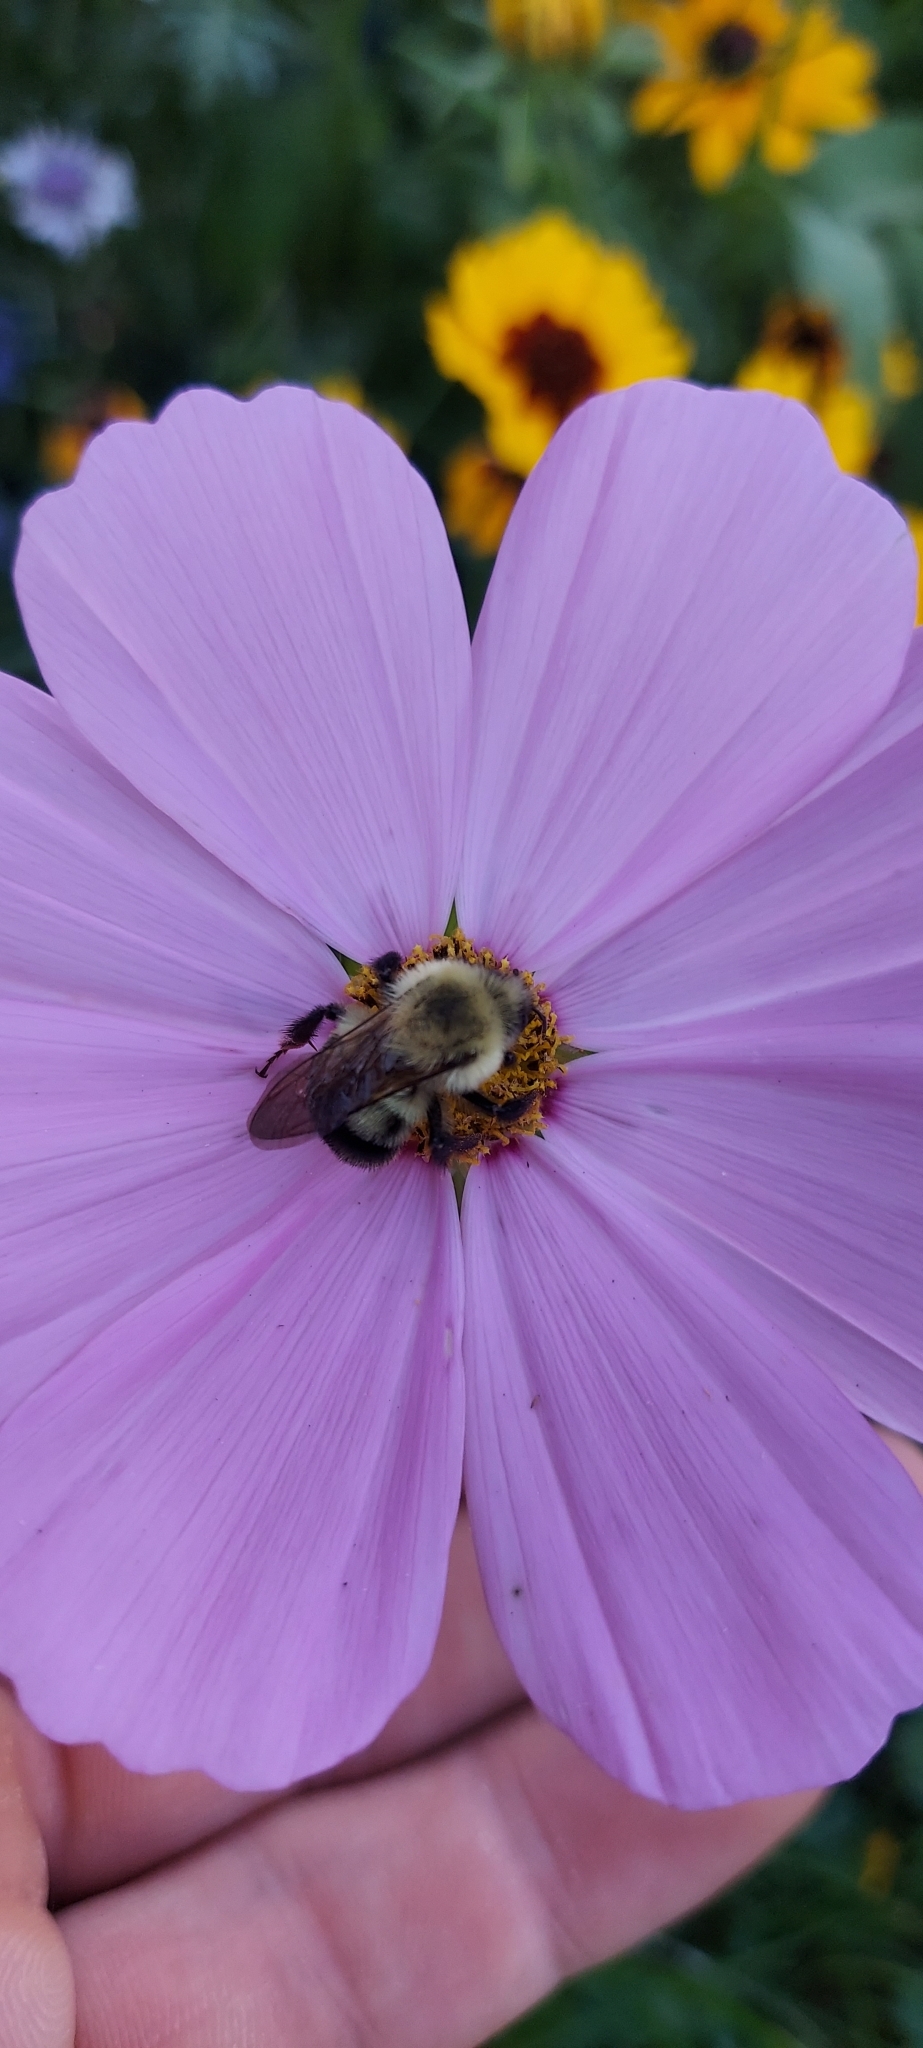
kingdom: Animalia
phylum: Arthropoda
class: Insecta
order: Hymenoptera
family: Apidae
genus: Bombus
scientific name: Bombus bimaculatus
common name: Two-spotted bumble bee
